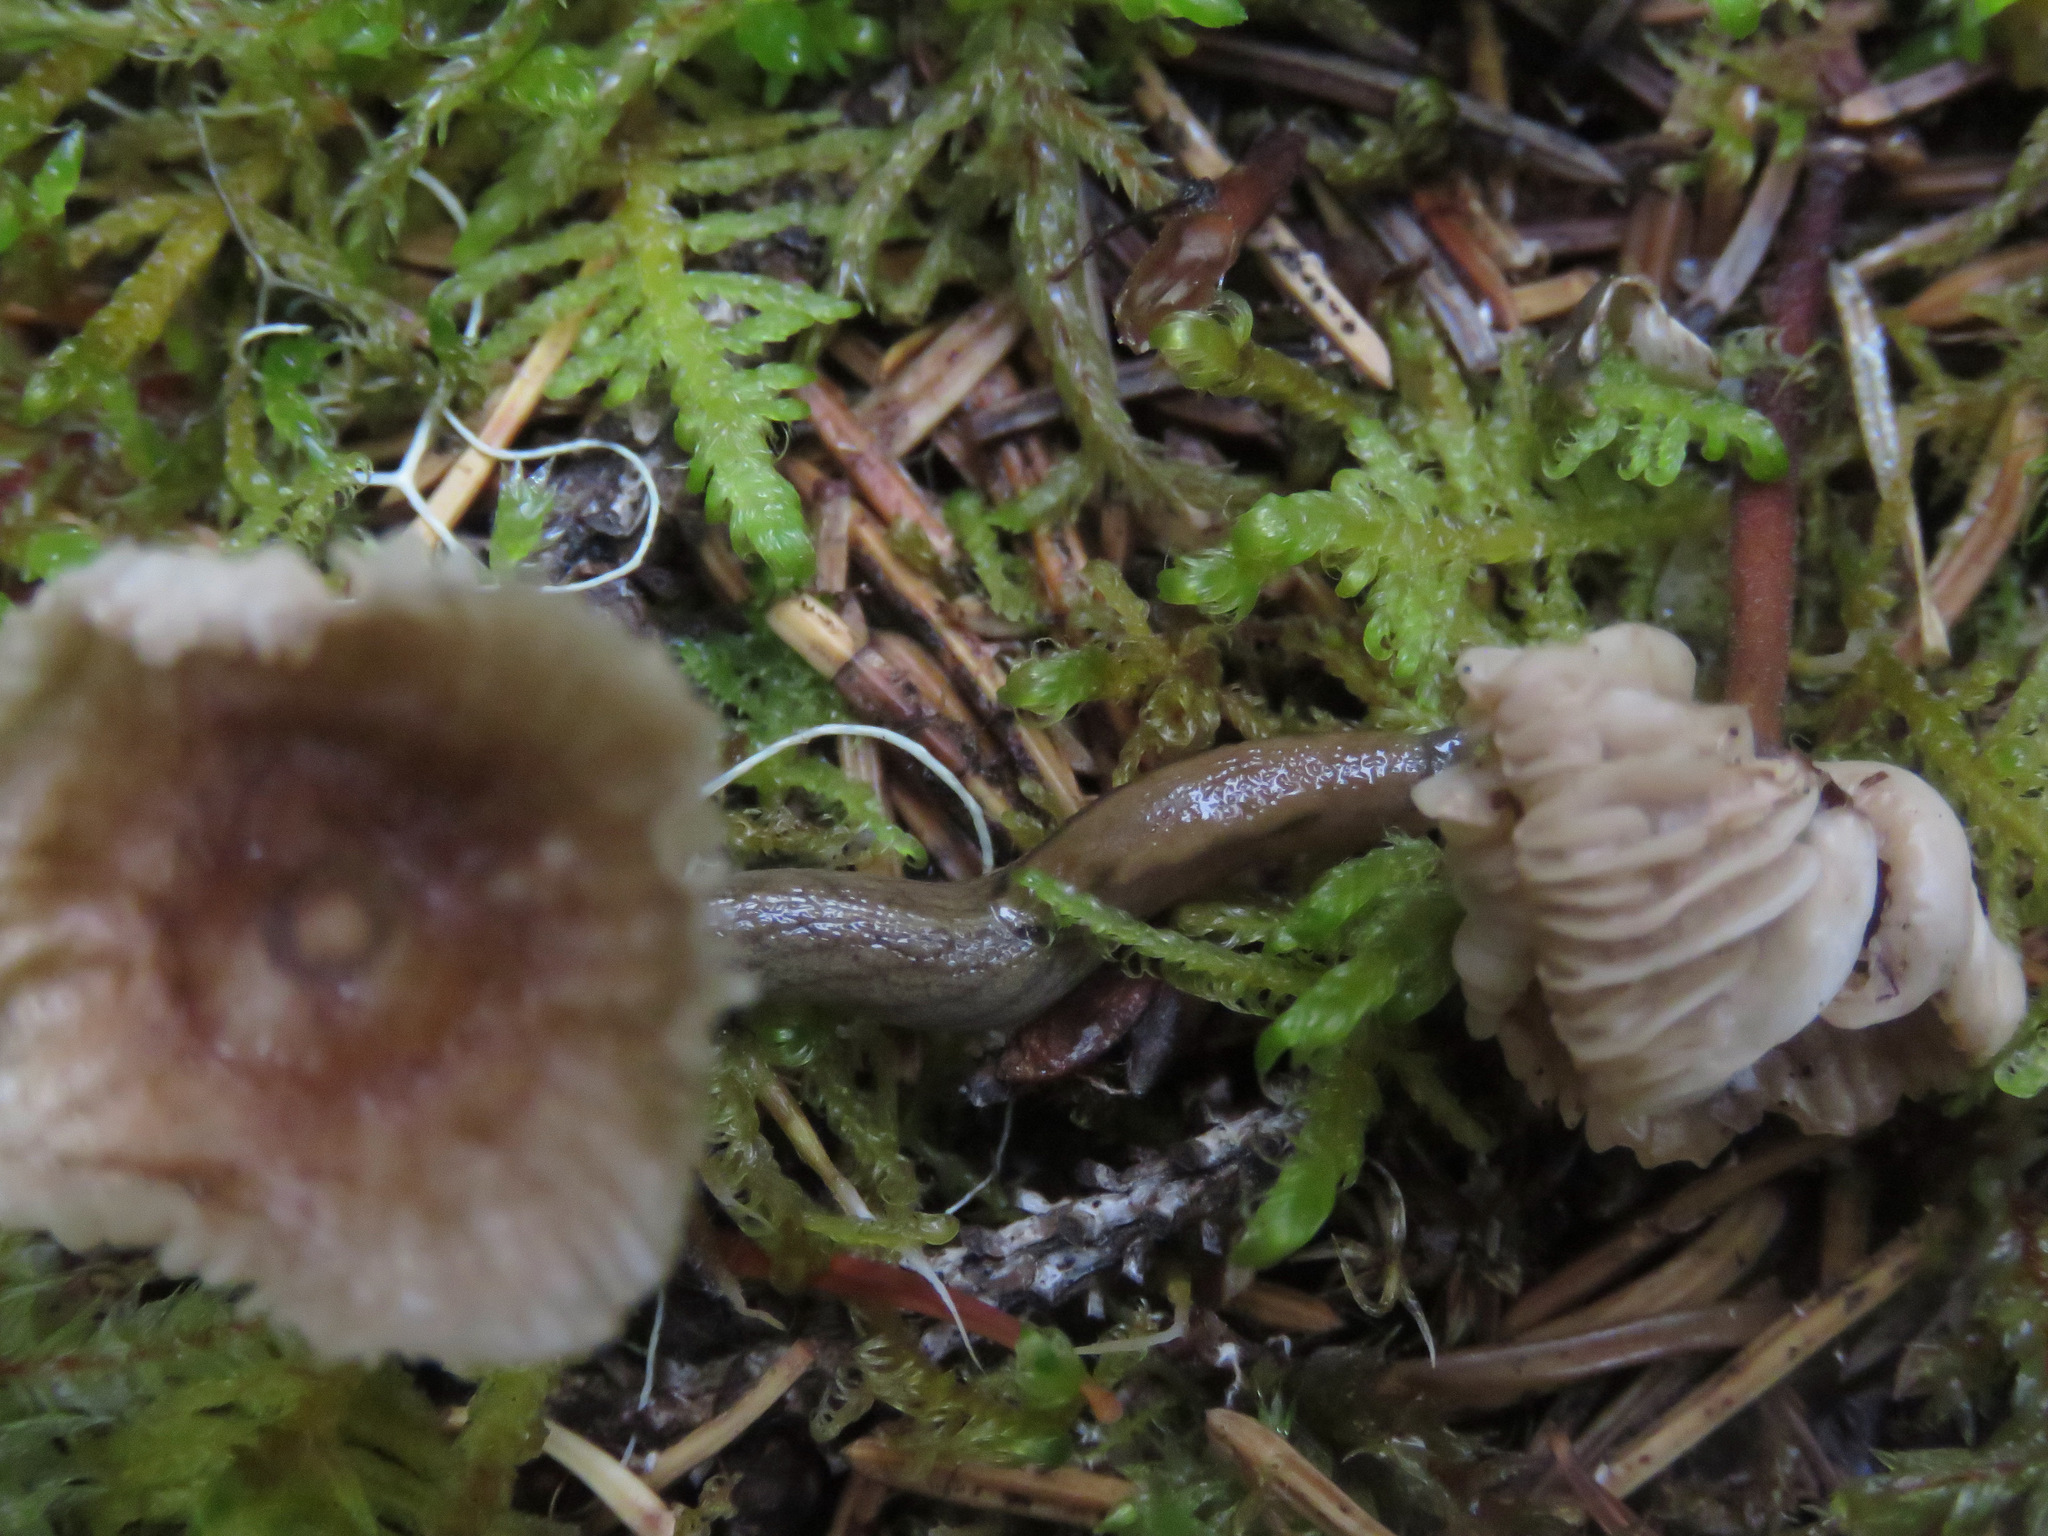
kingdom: Animalia
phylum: Mollusca
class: Gastropoda
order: Stylommatophora
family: Ariolimacidae
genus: Prophysaon
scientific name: Prophysaon andersonii
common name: Reticulate taildropper
